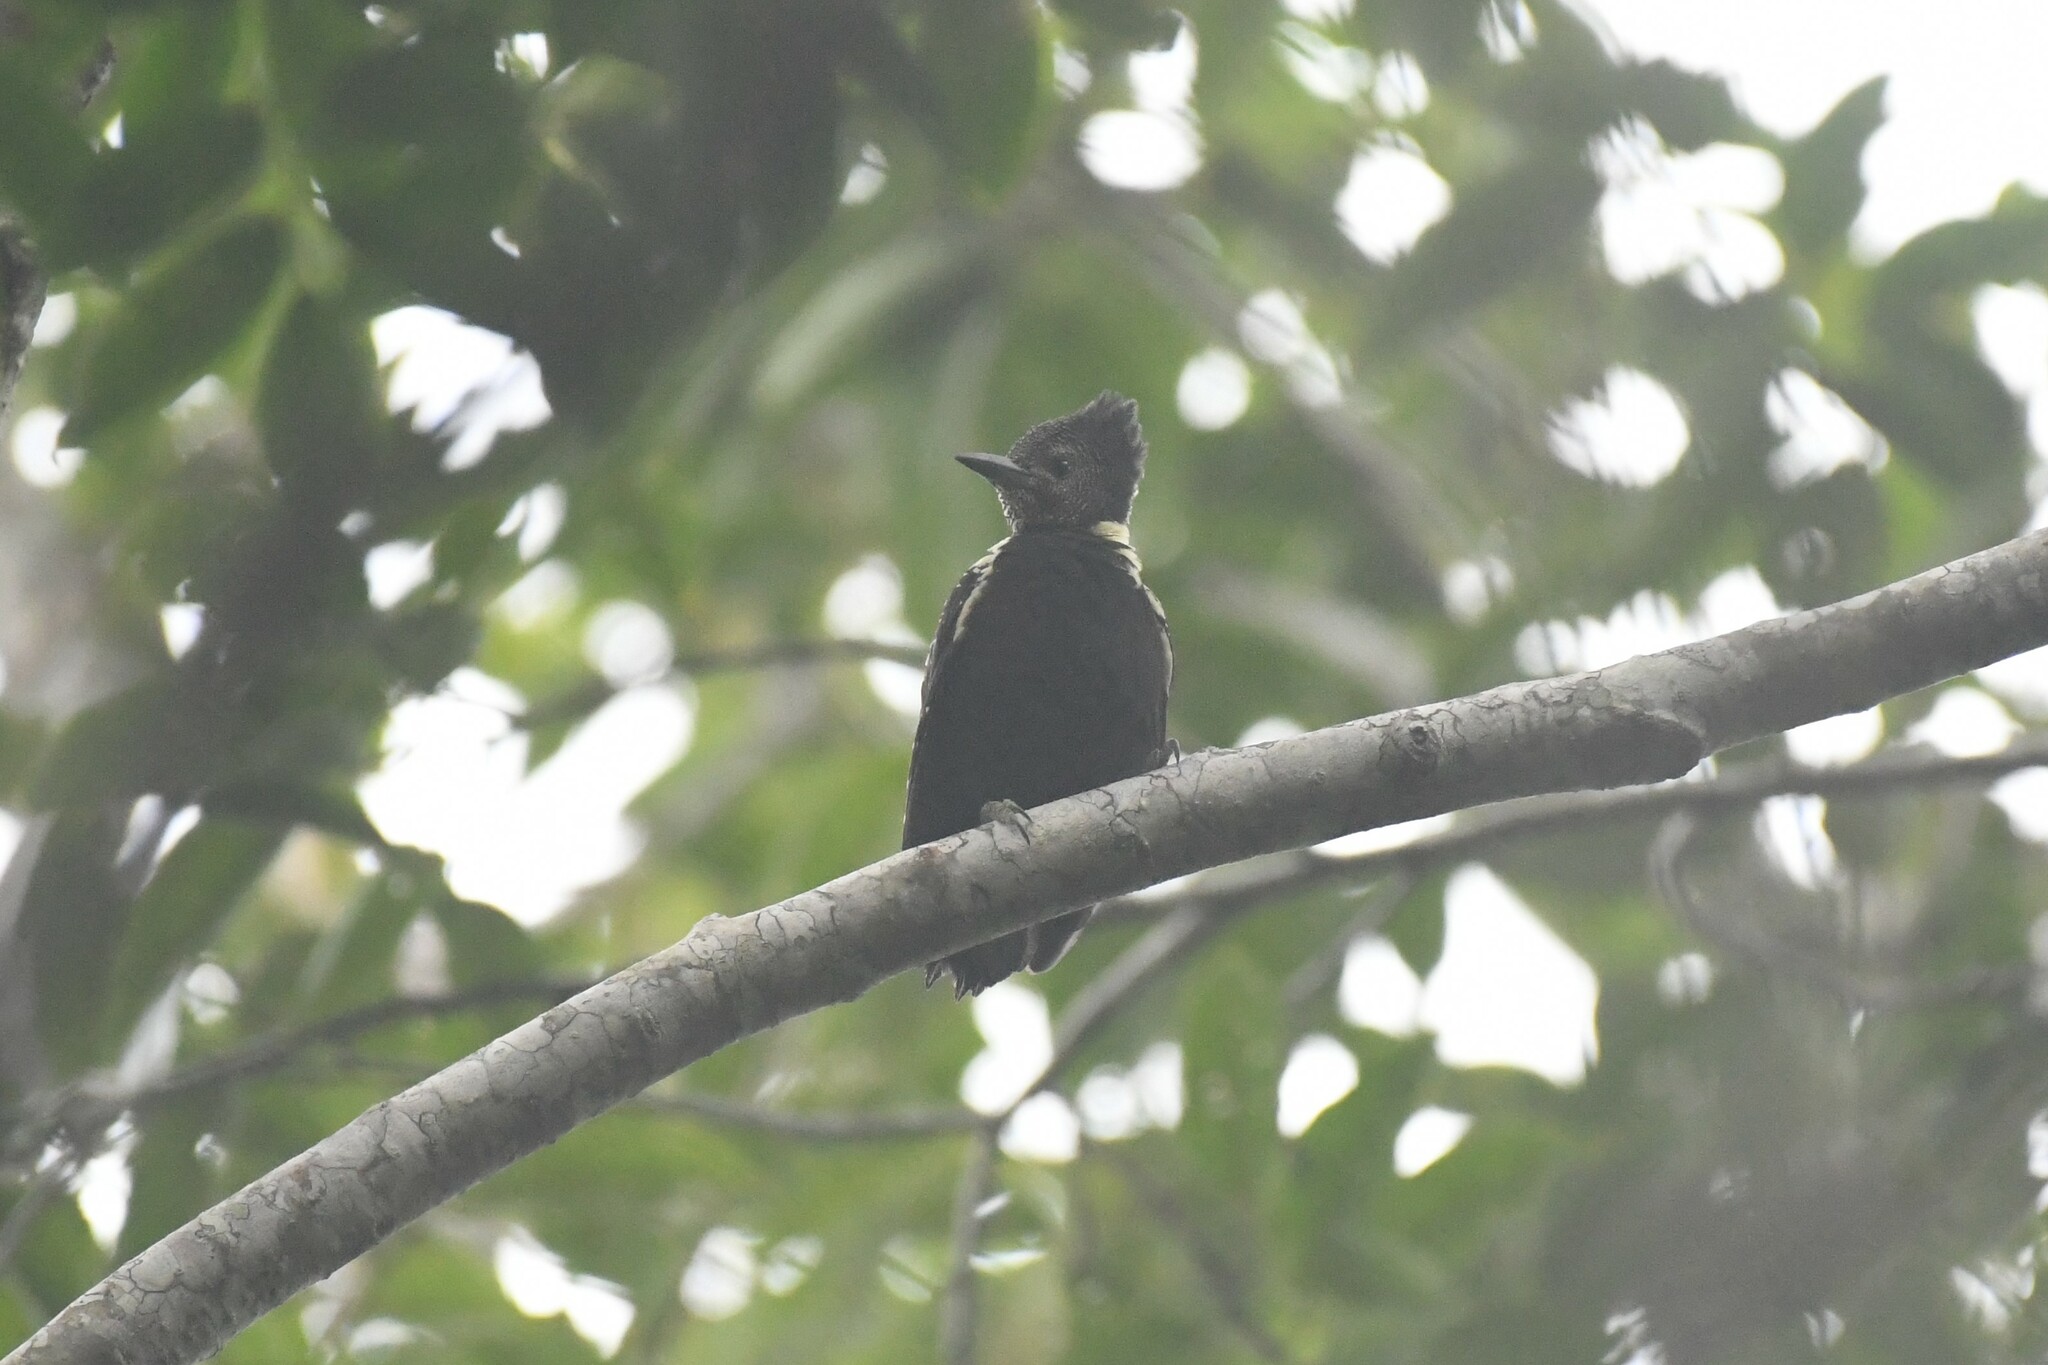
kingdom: Animalia
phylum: Chordata
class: Aves
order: Piciformes
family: Picidae
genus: Meiglyptes
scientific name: Meiglyptes jugularis
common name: Black-and-buff woodpecker
